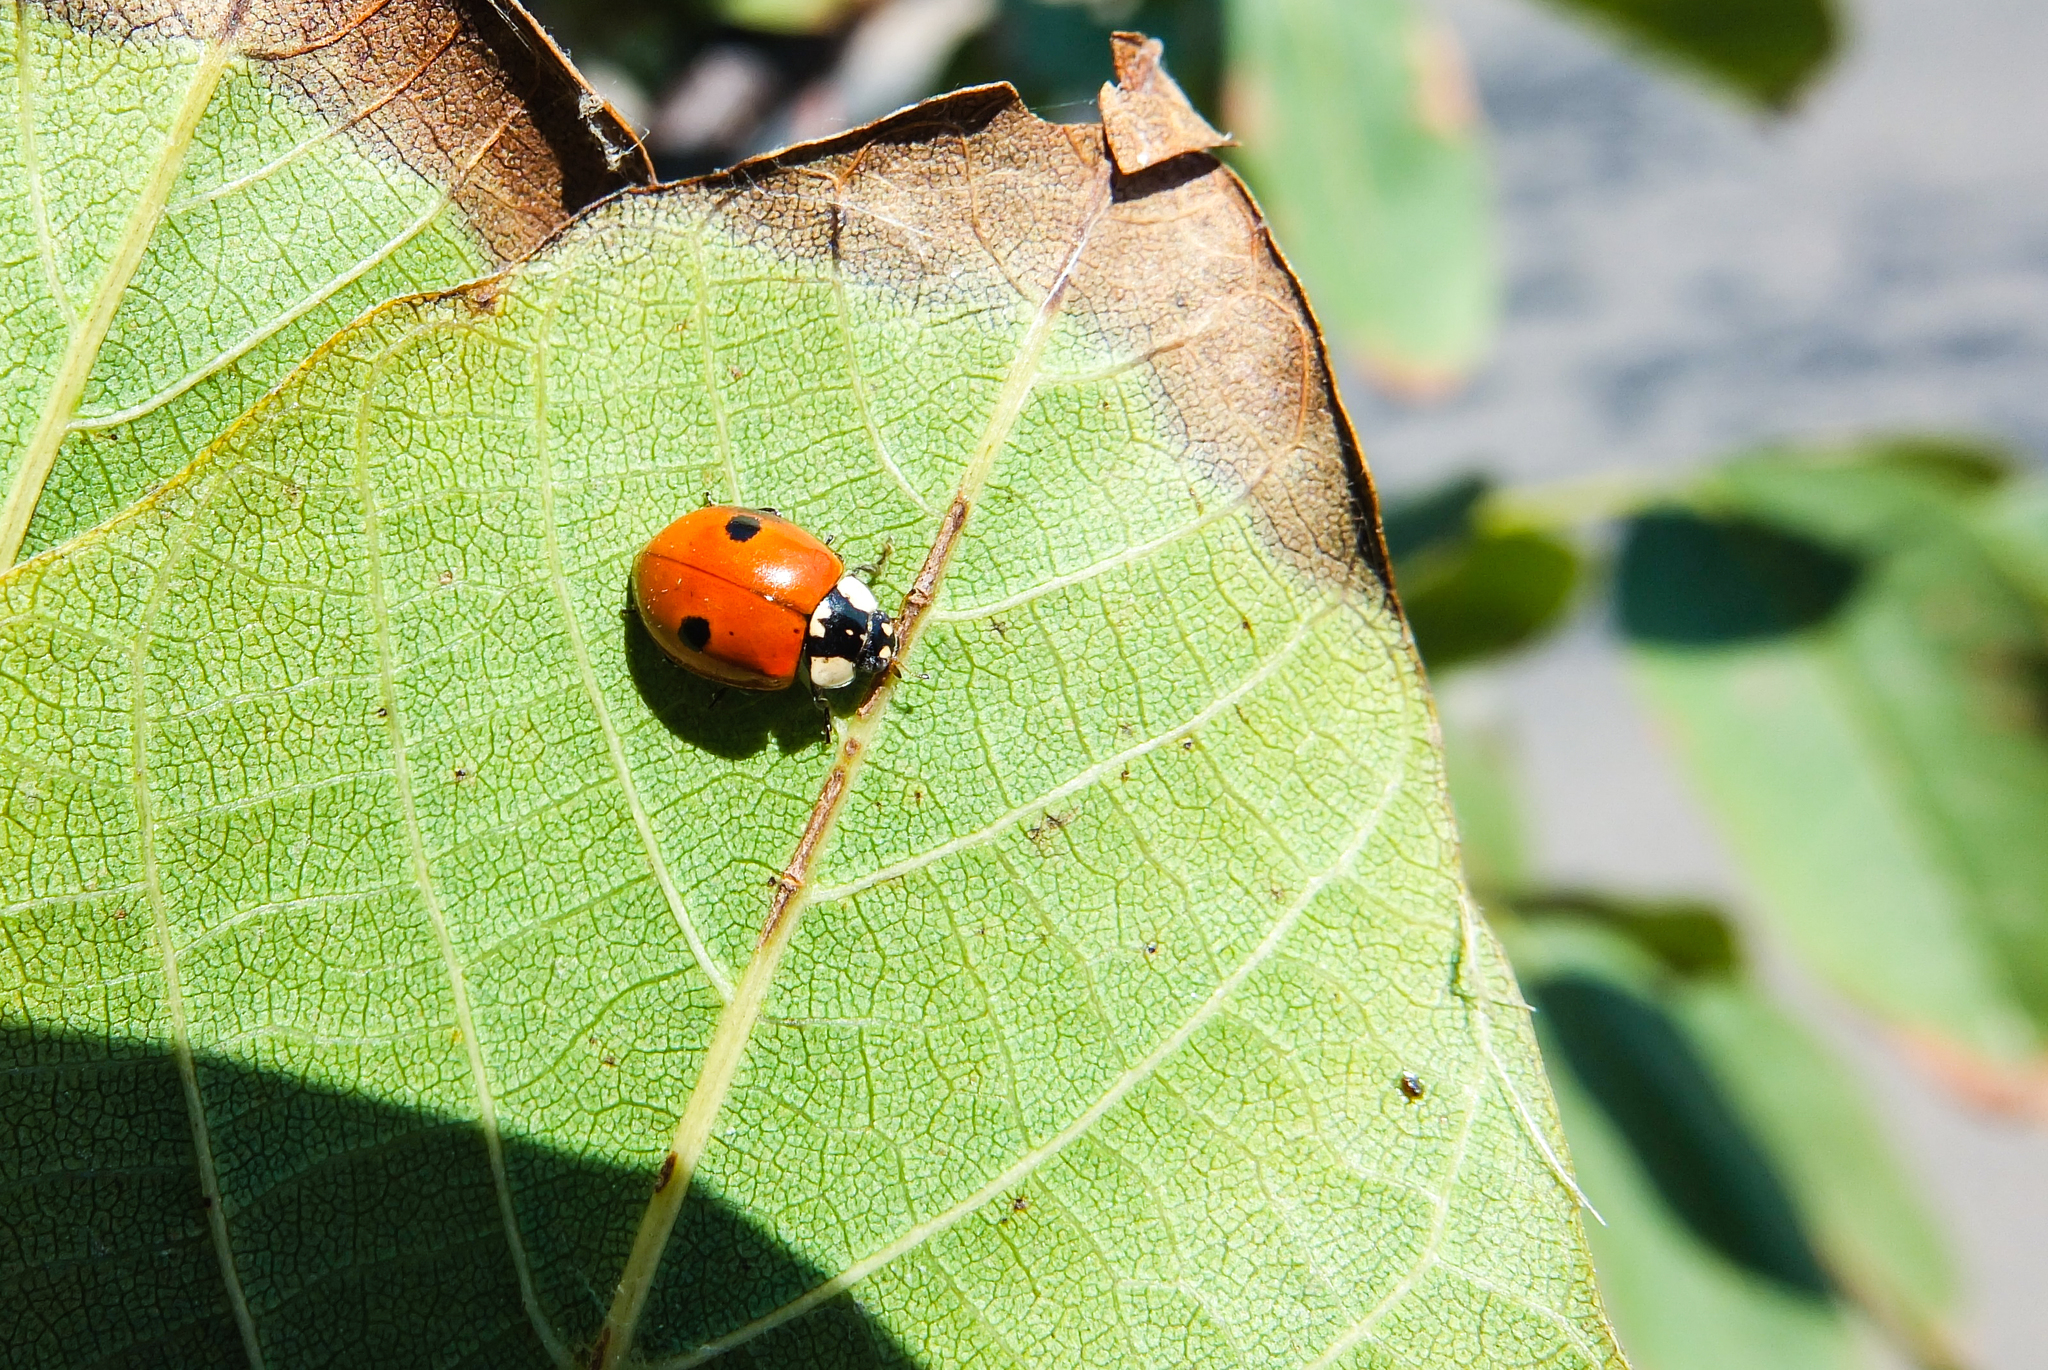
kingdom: Animalia
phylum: Arthropoda
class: Insecta
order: Coleoptera
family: Coccinellidae
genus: Adalia
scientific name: Adalia bipunctata
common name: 2-spot ladybird
